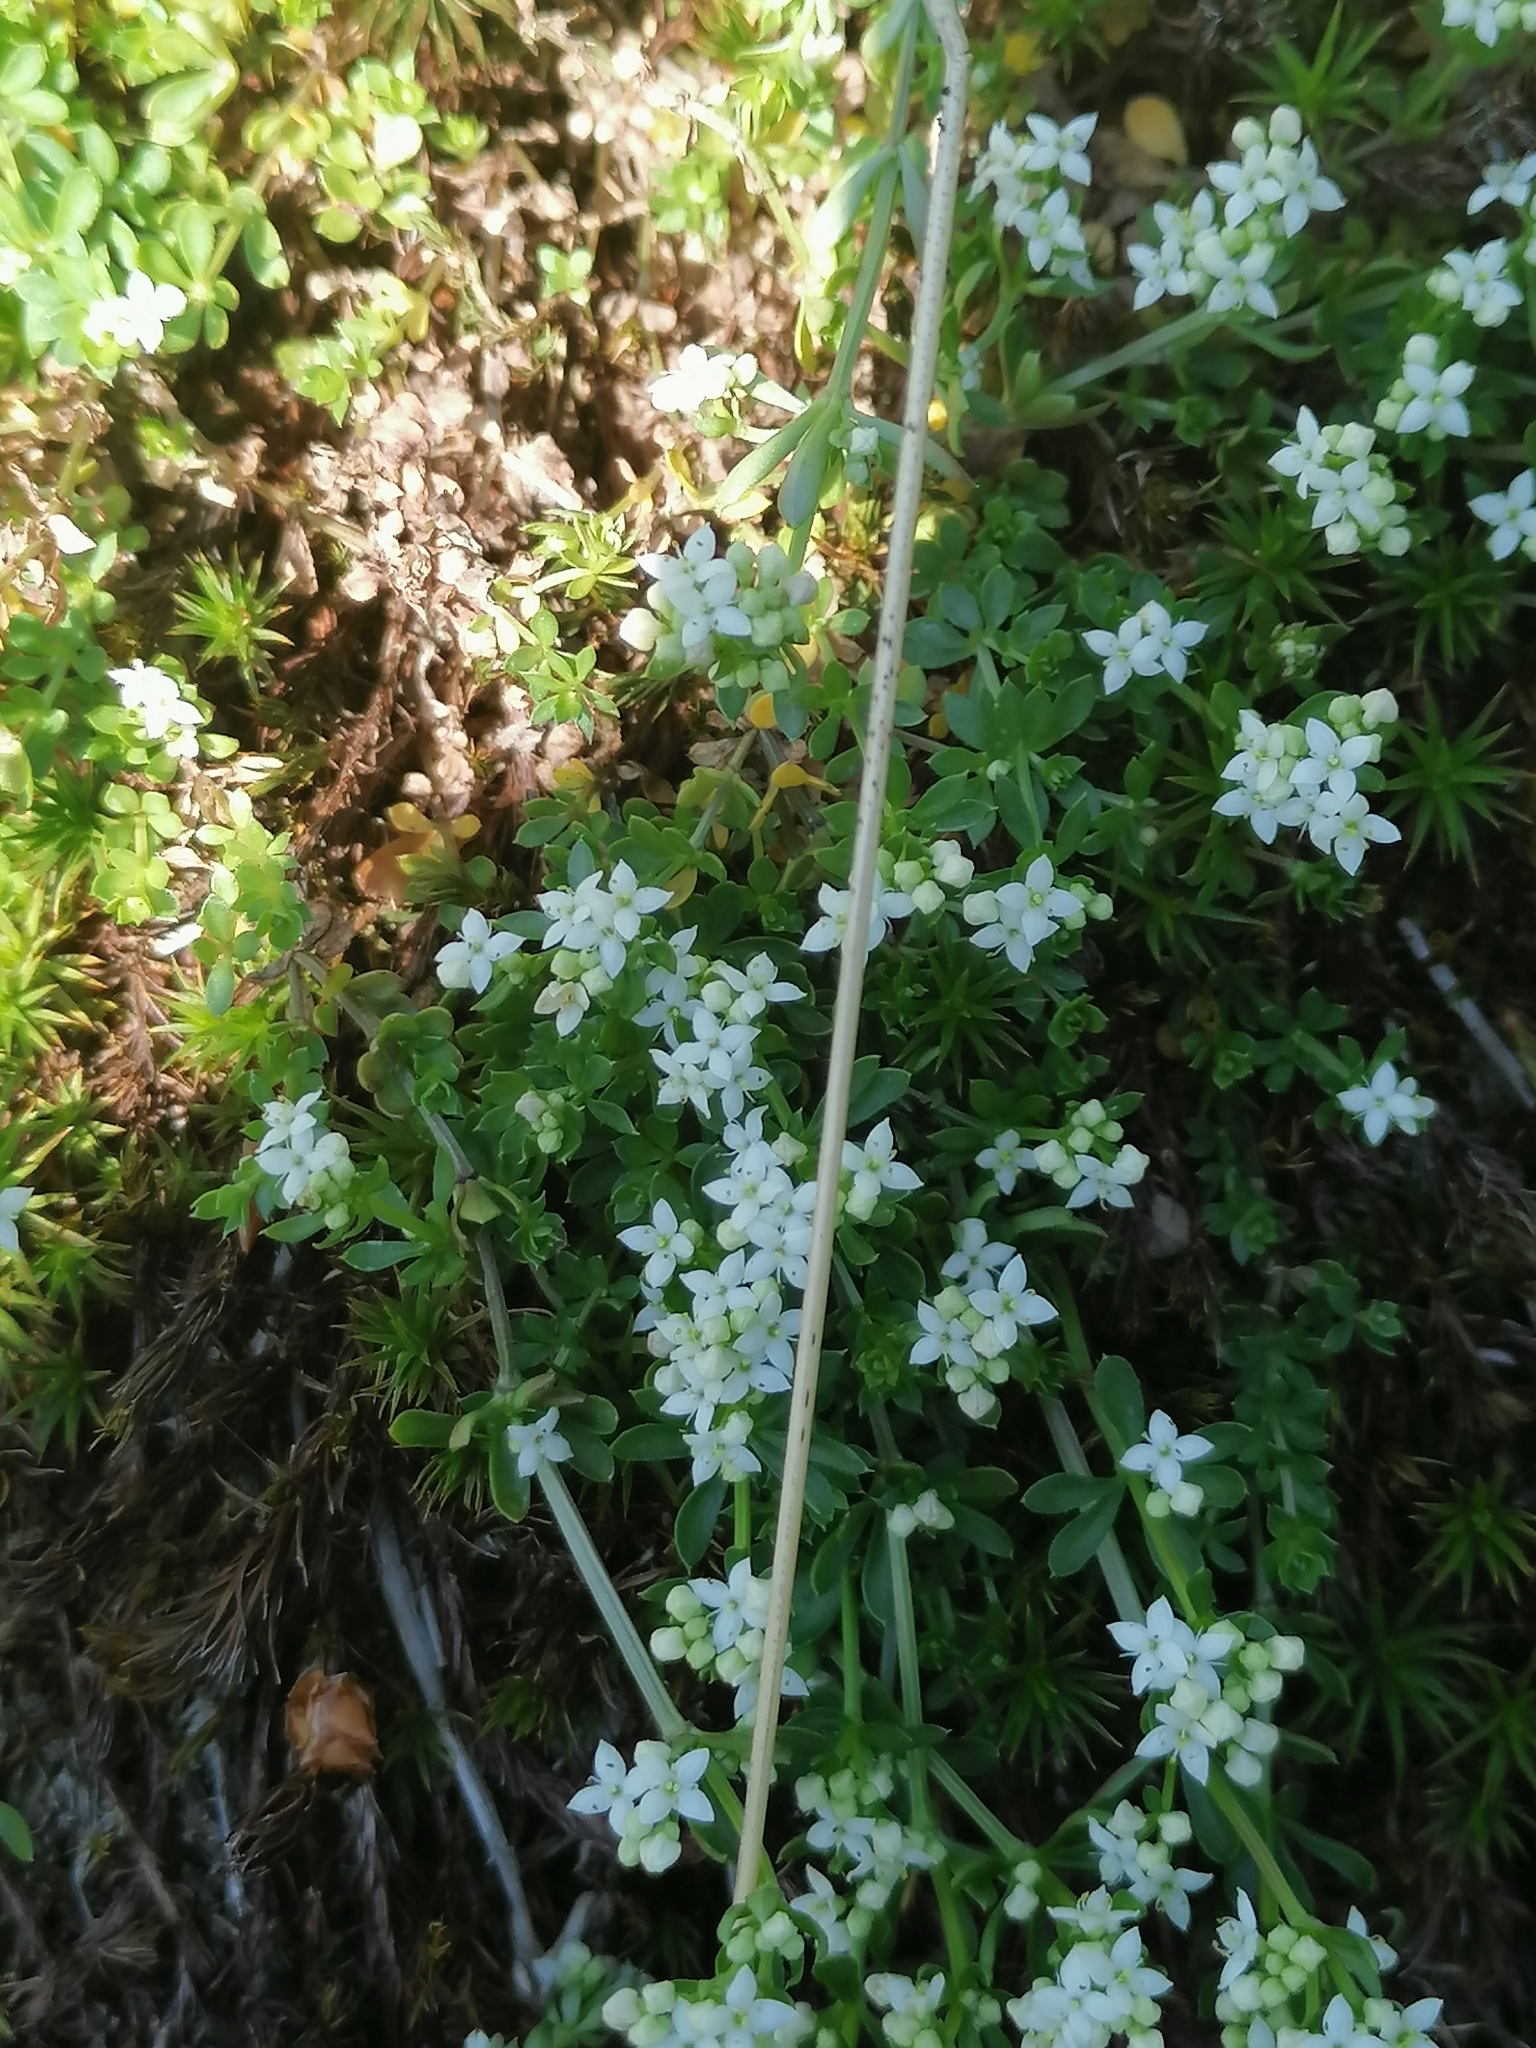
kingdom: Plantae
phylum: Tracheophyta
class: Magnoliopsida
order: Gentianales
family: Rubiaceae
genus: Galium
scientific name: Galium saxatile
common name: Heath bedstraw
